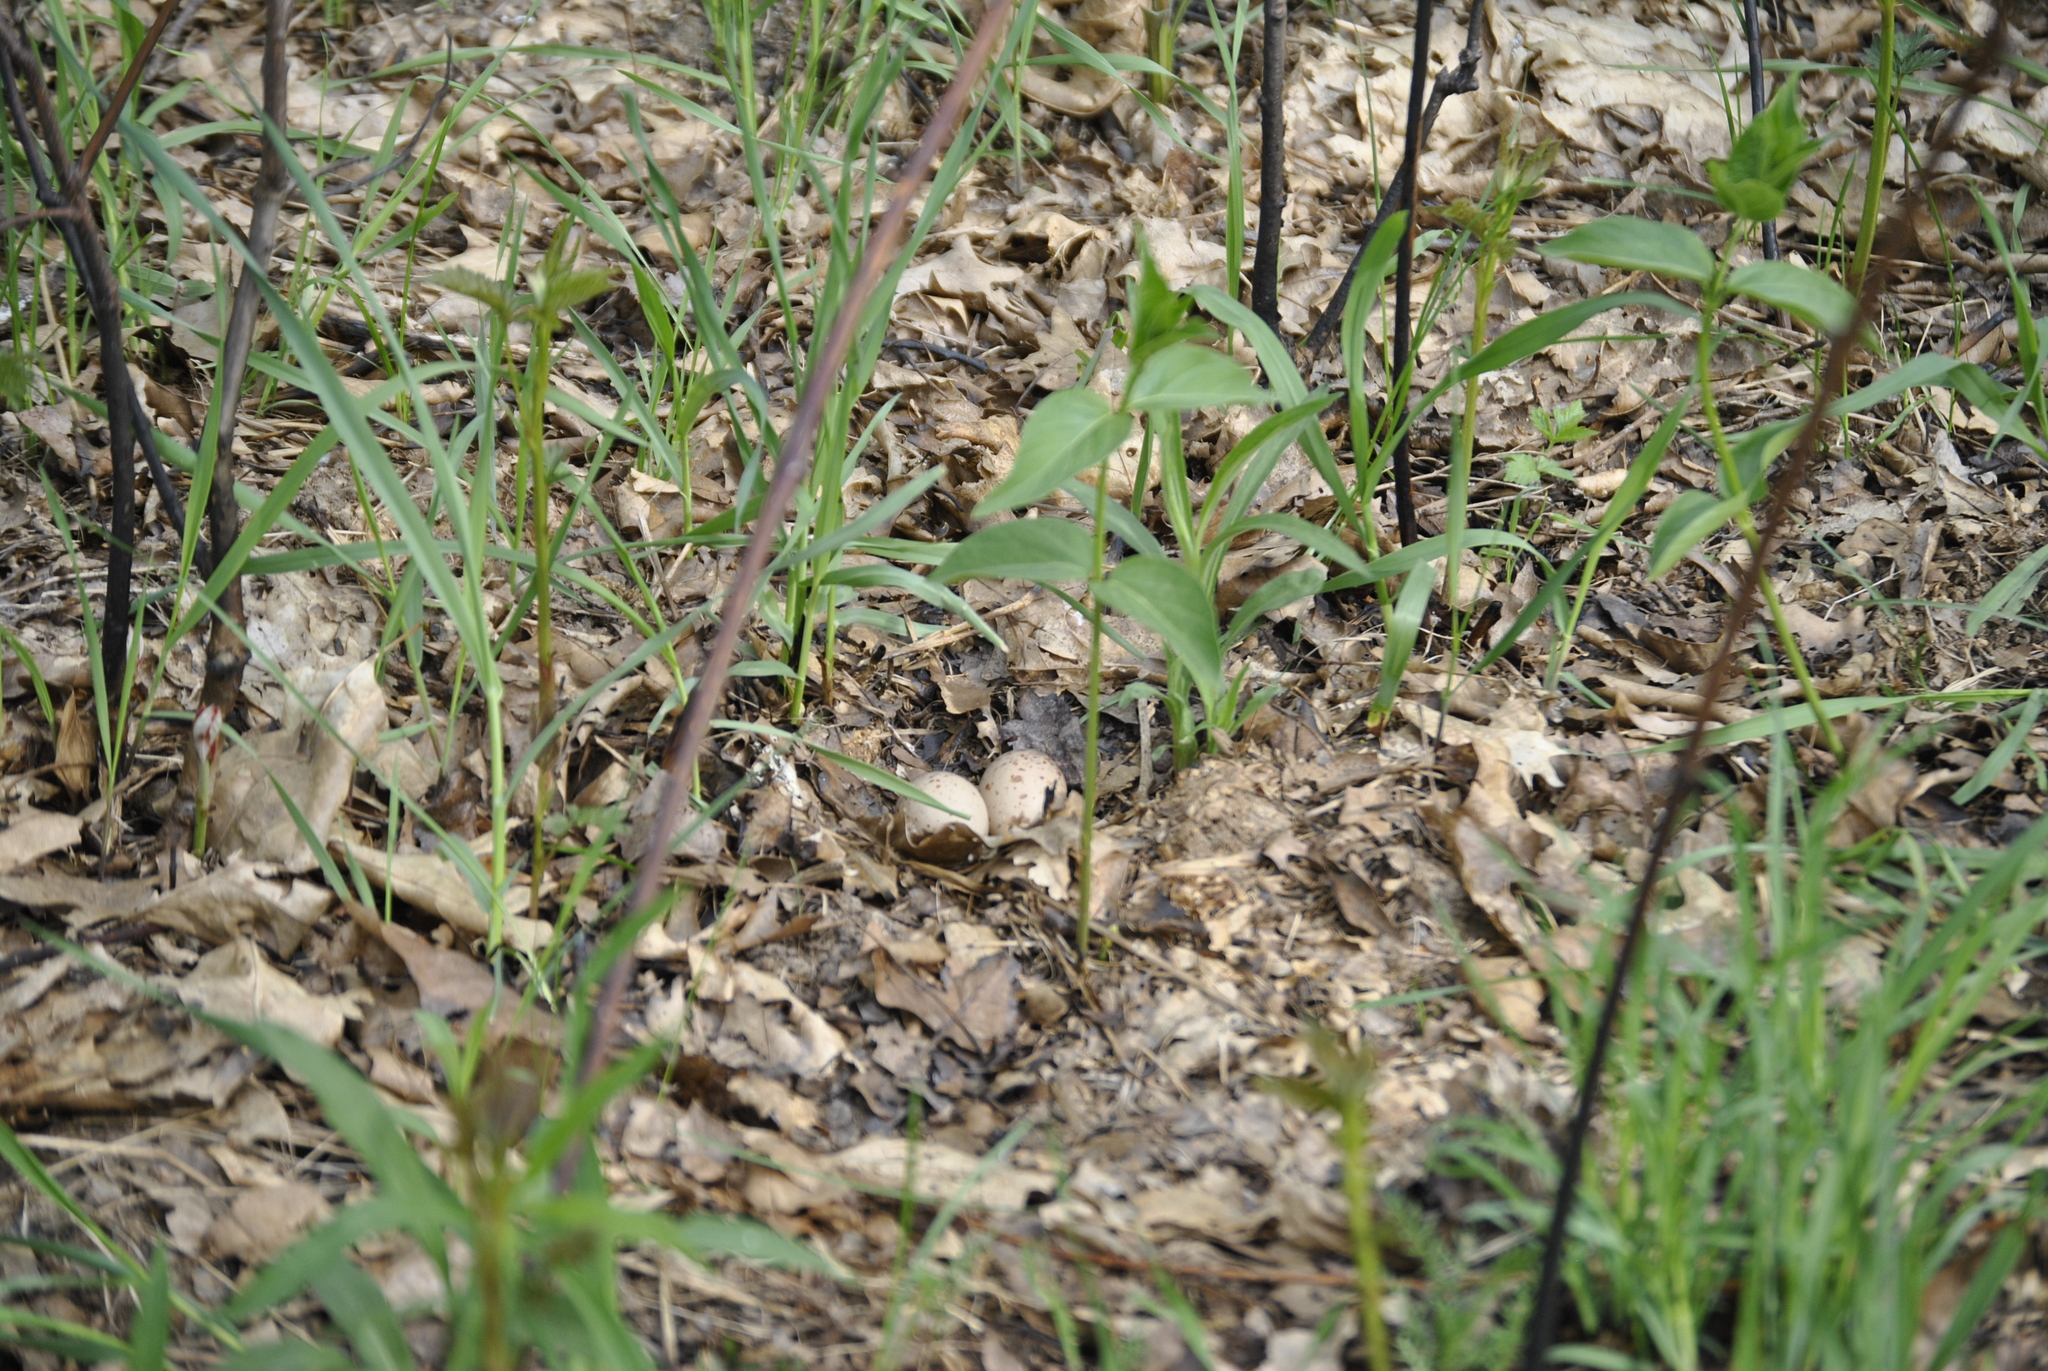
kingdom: Animalia
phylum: Chordata
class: Aves
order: Charadriiformes
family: Scolopacidae
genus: Scolopax
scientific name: Scolopax minor
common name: American woodcock
